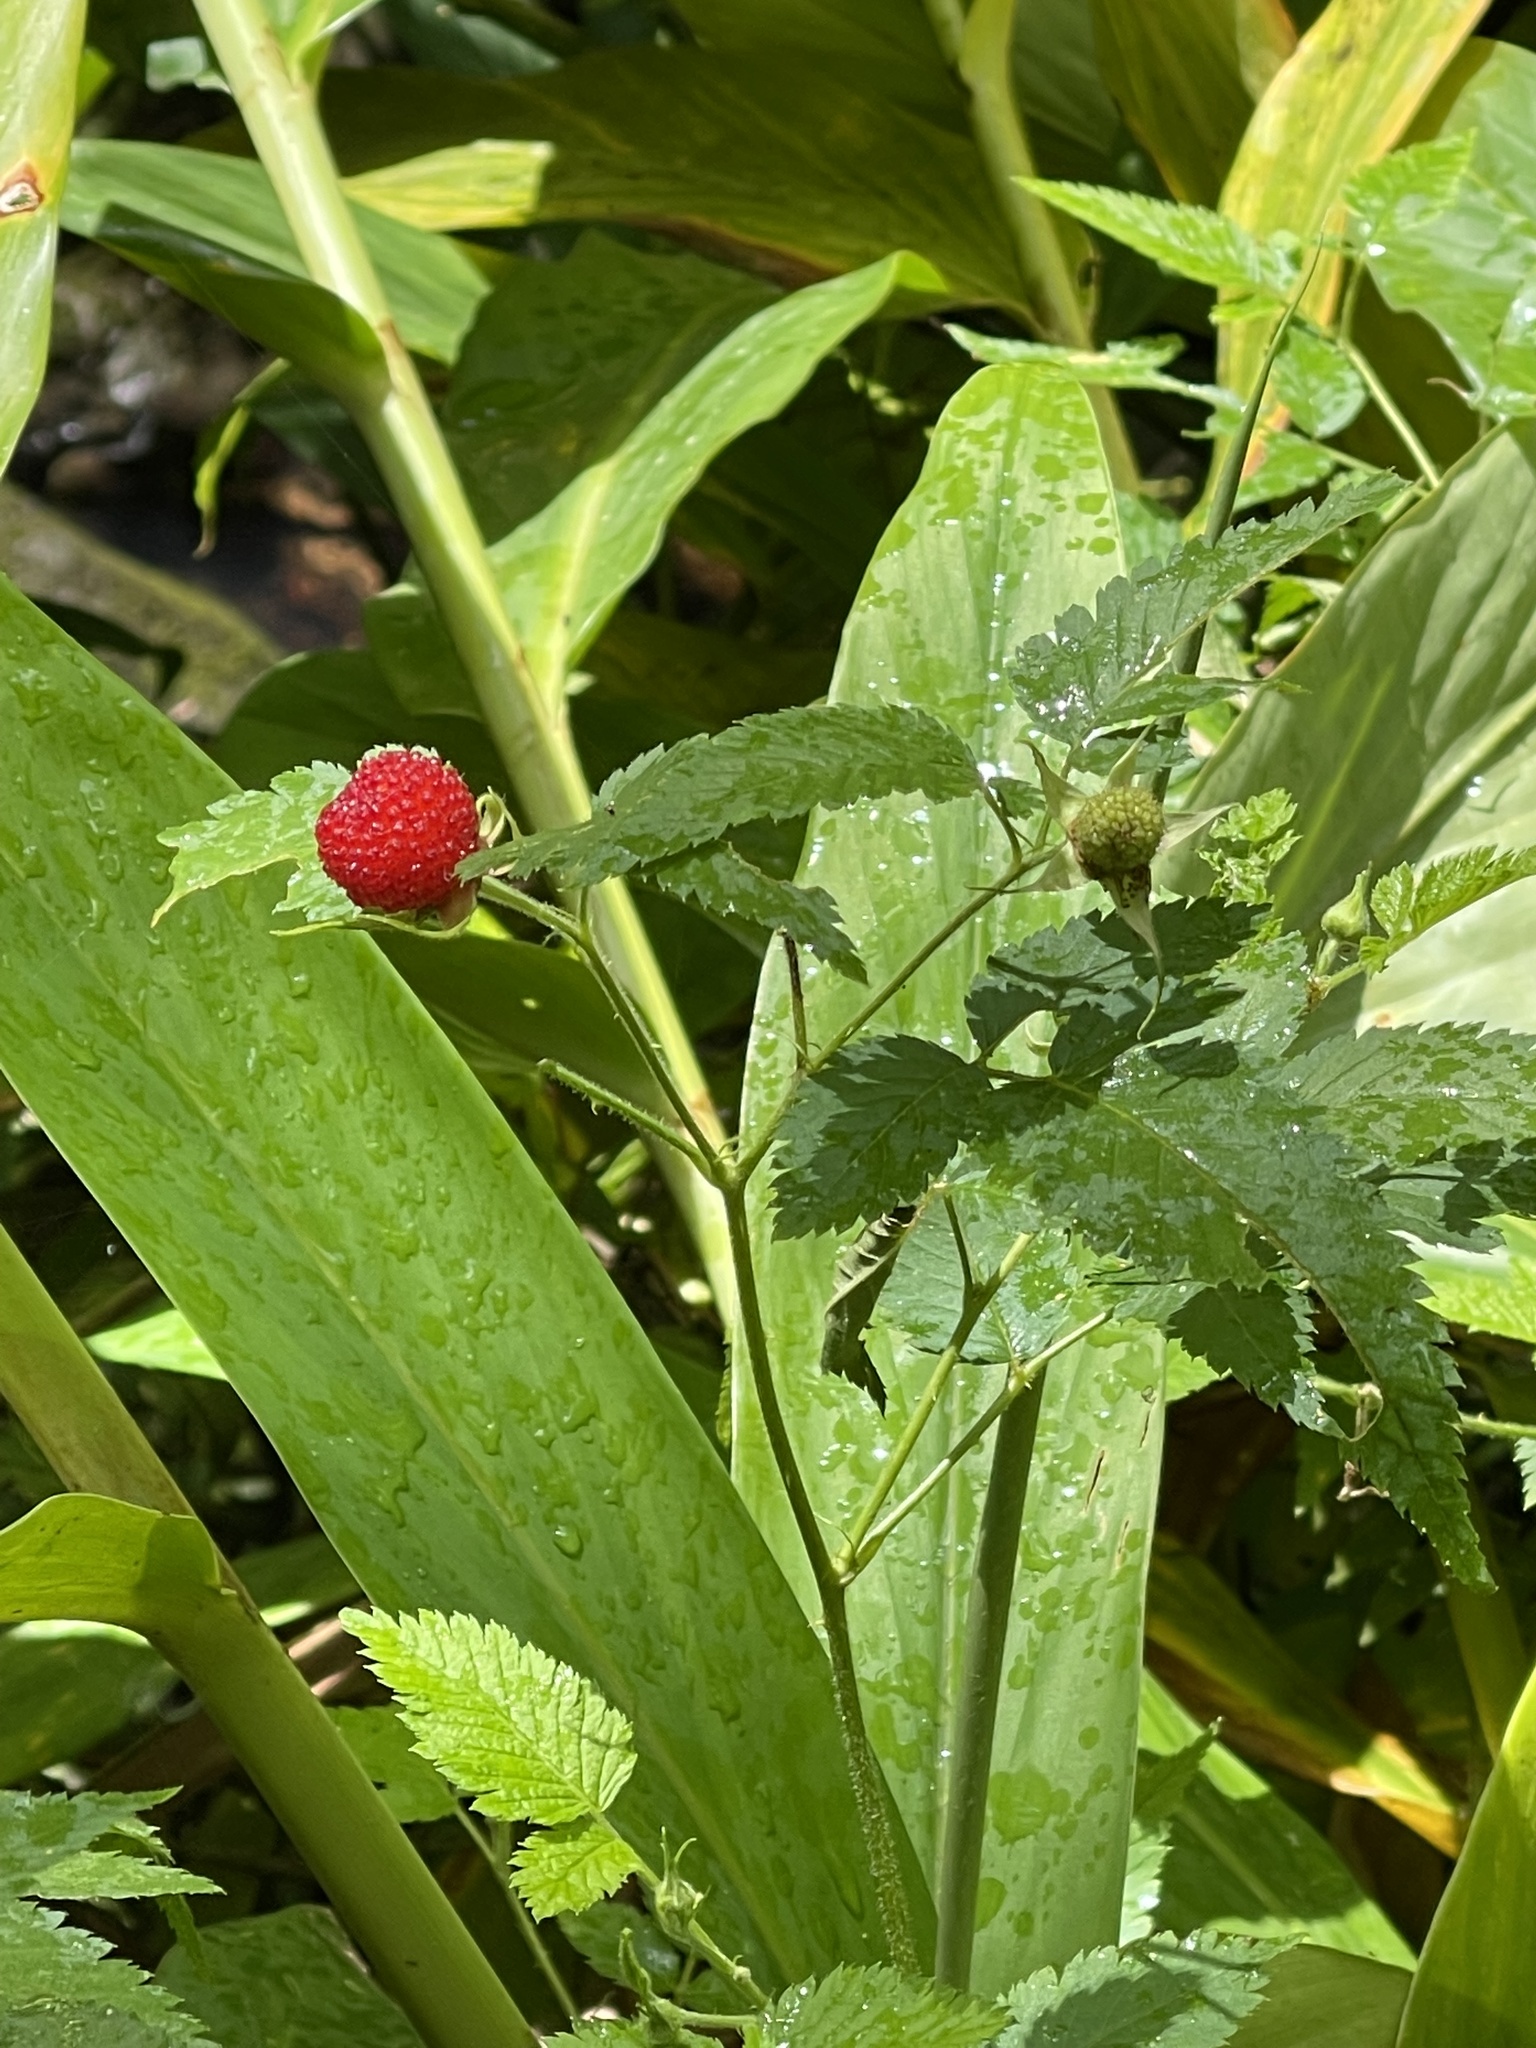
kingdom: Plantae
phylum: Tracheophyta
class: Magnoliopsida
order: Rosales
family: Rosaceae
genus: Rubus
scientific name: Rubus rosifolius
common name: Roseleaf raspberry
